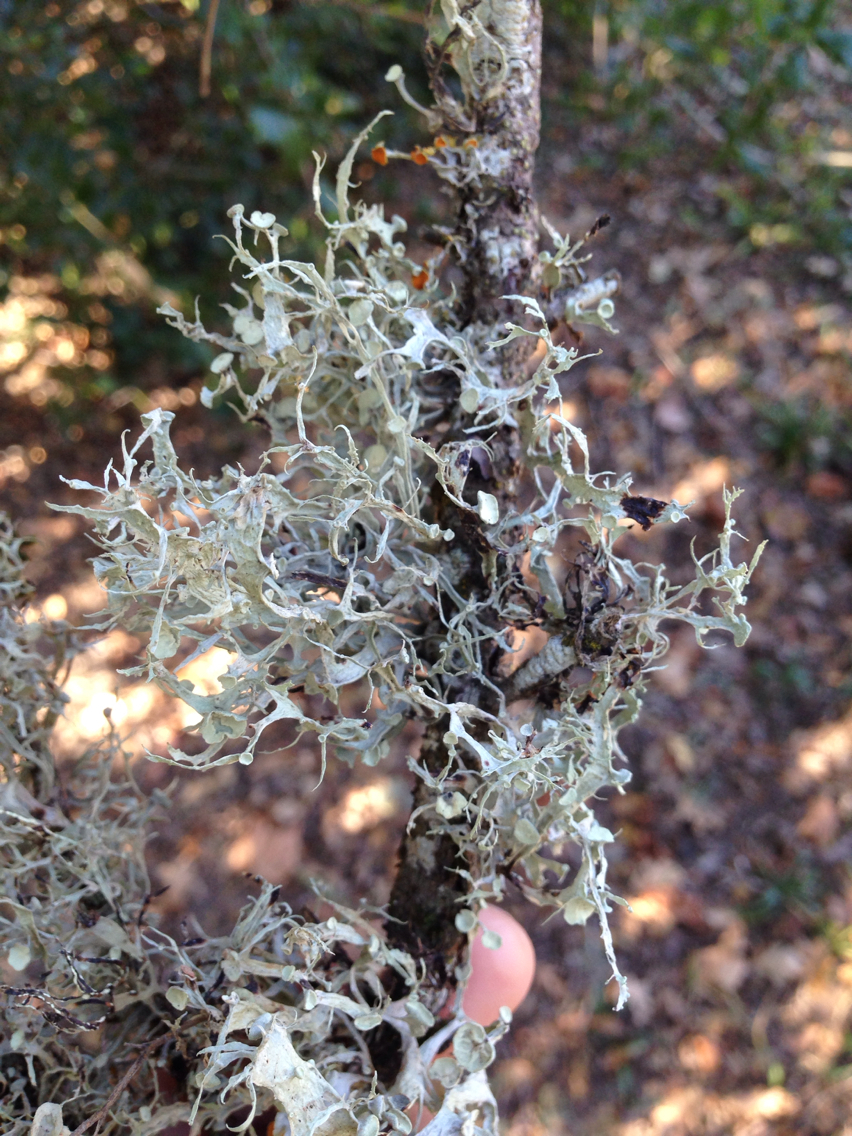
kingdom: Fungi
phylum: Ascomycota
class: Lecanoromycetes
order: Lecanorales
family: Ramalinaceae
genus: Ramalina
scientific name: Ramalina leptocarpha
